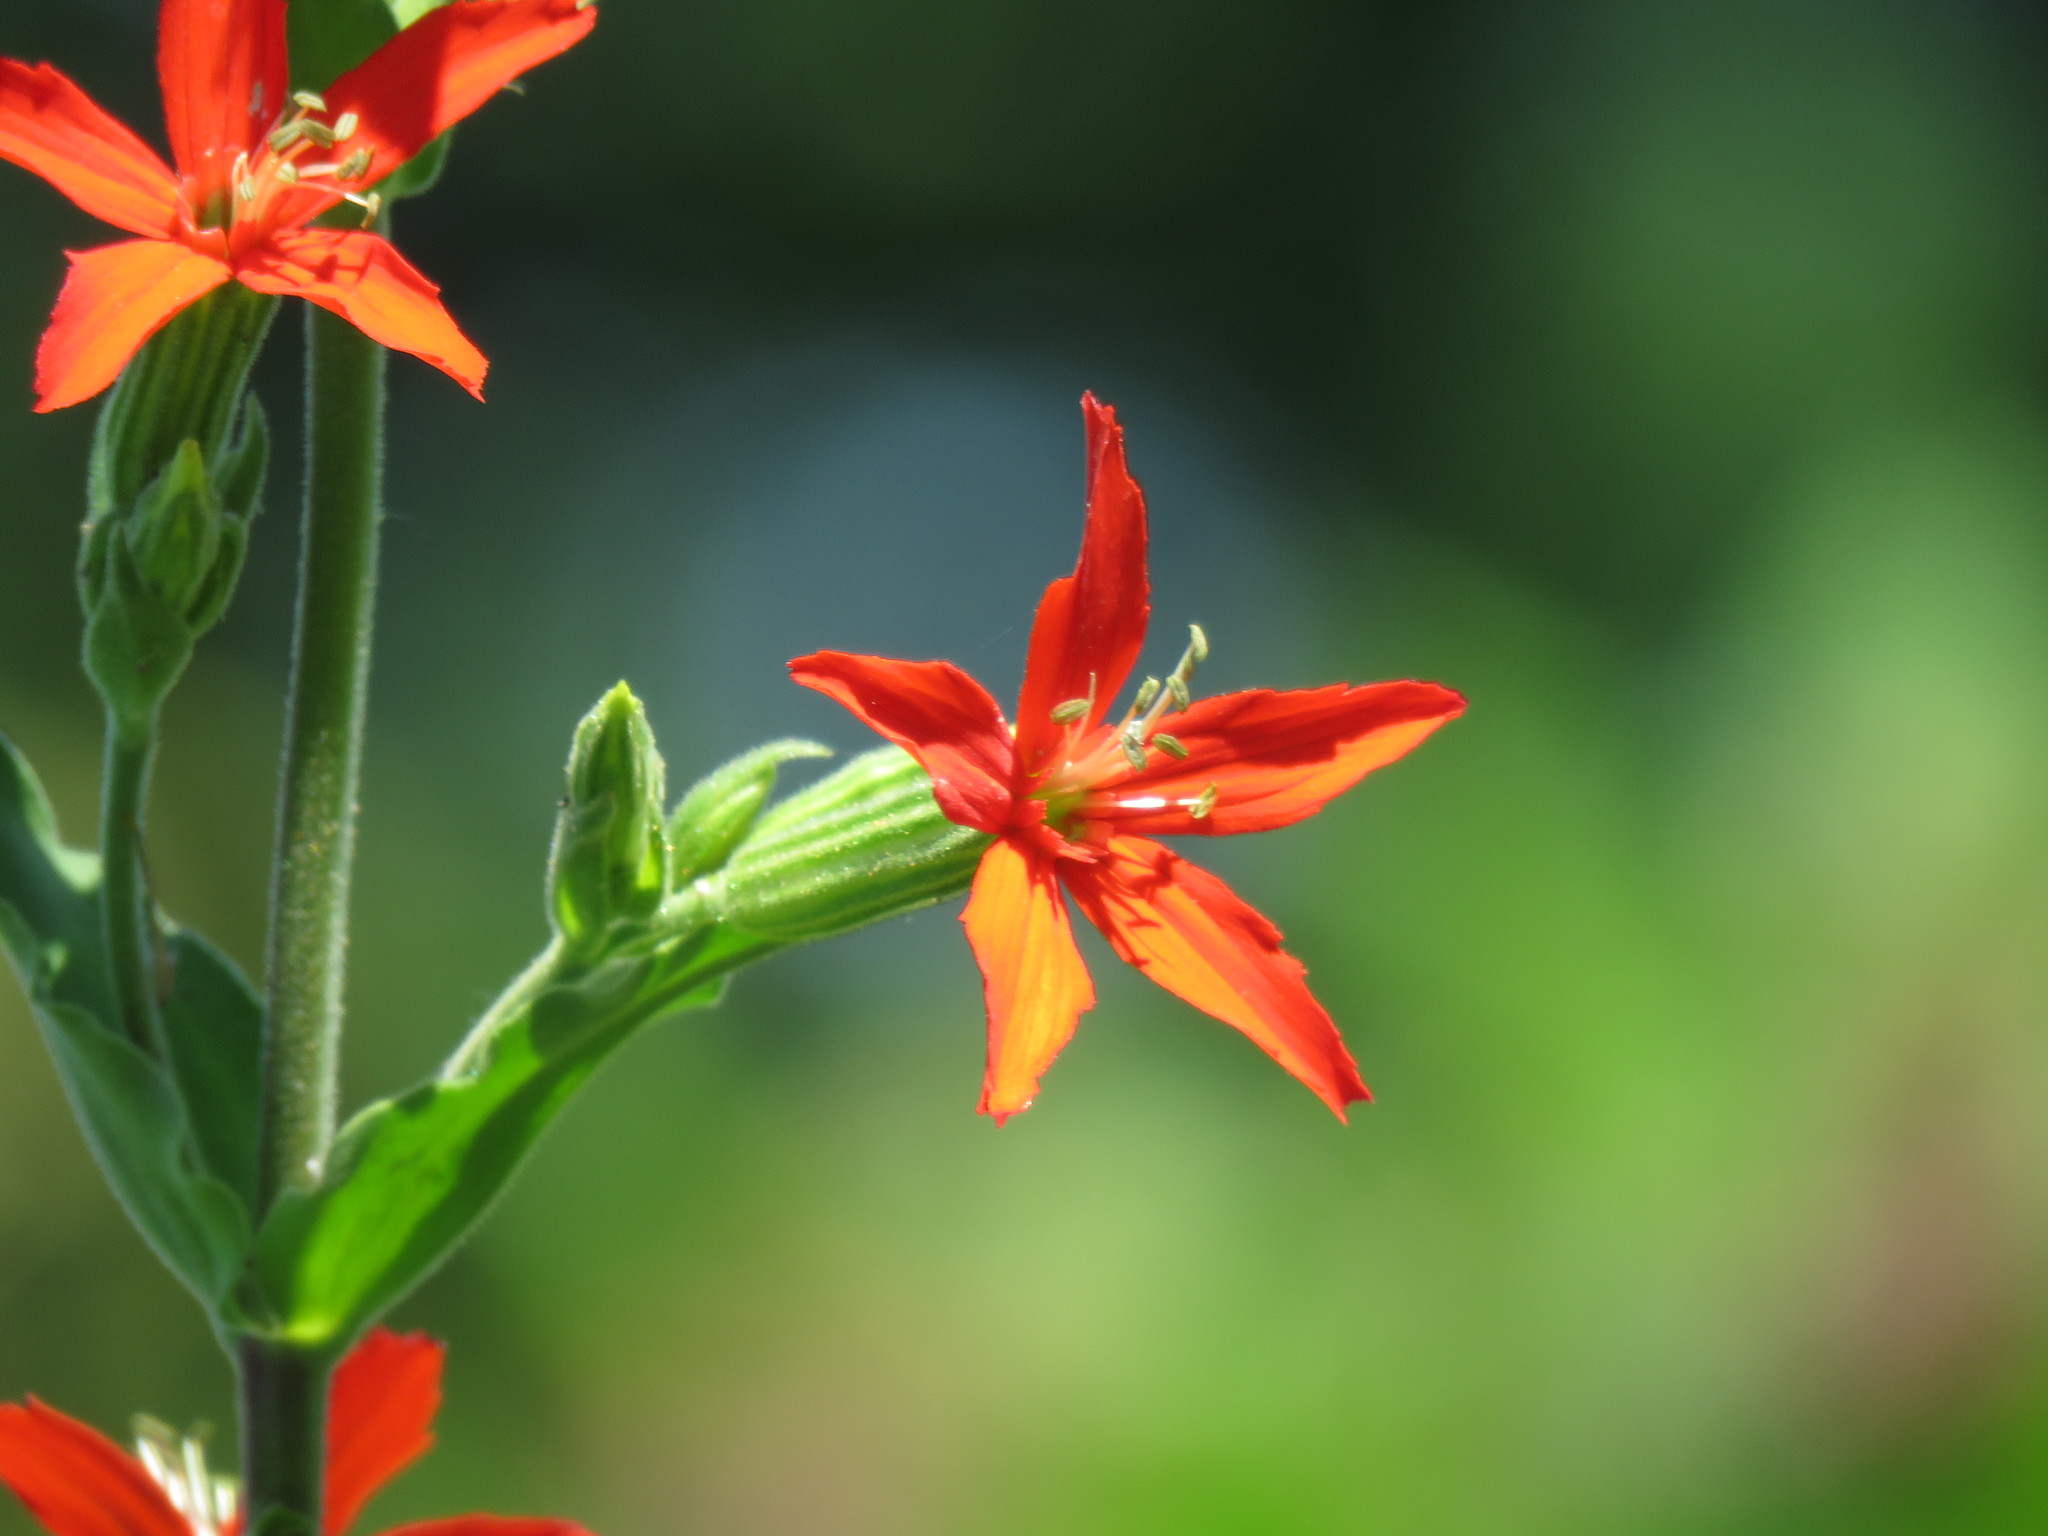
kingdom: Plantae
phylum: Tracheophyta
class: Magnoliopsida
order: Caryophyllales
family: Caryophyllaceae
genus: Silene
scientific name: Silene regia
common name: Royal catchfly
